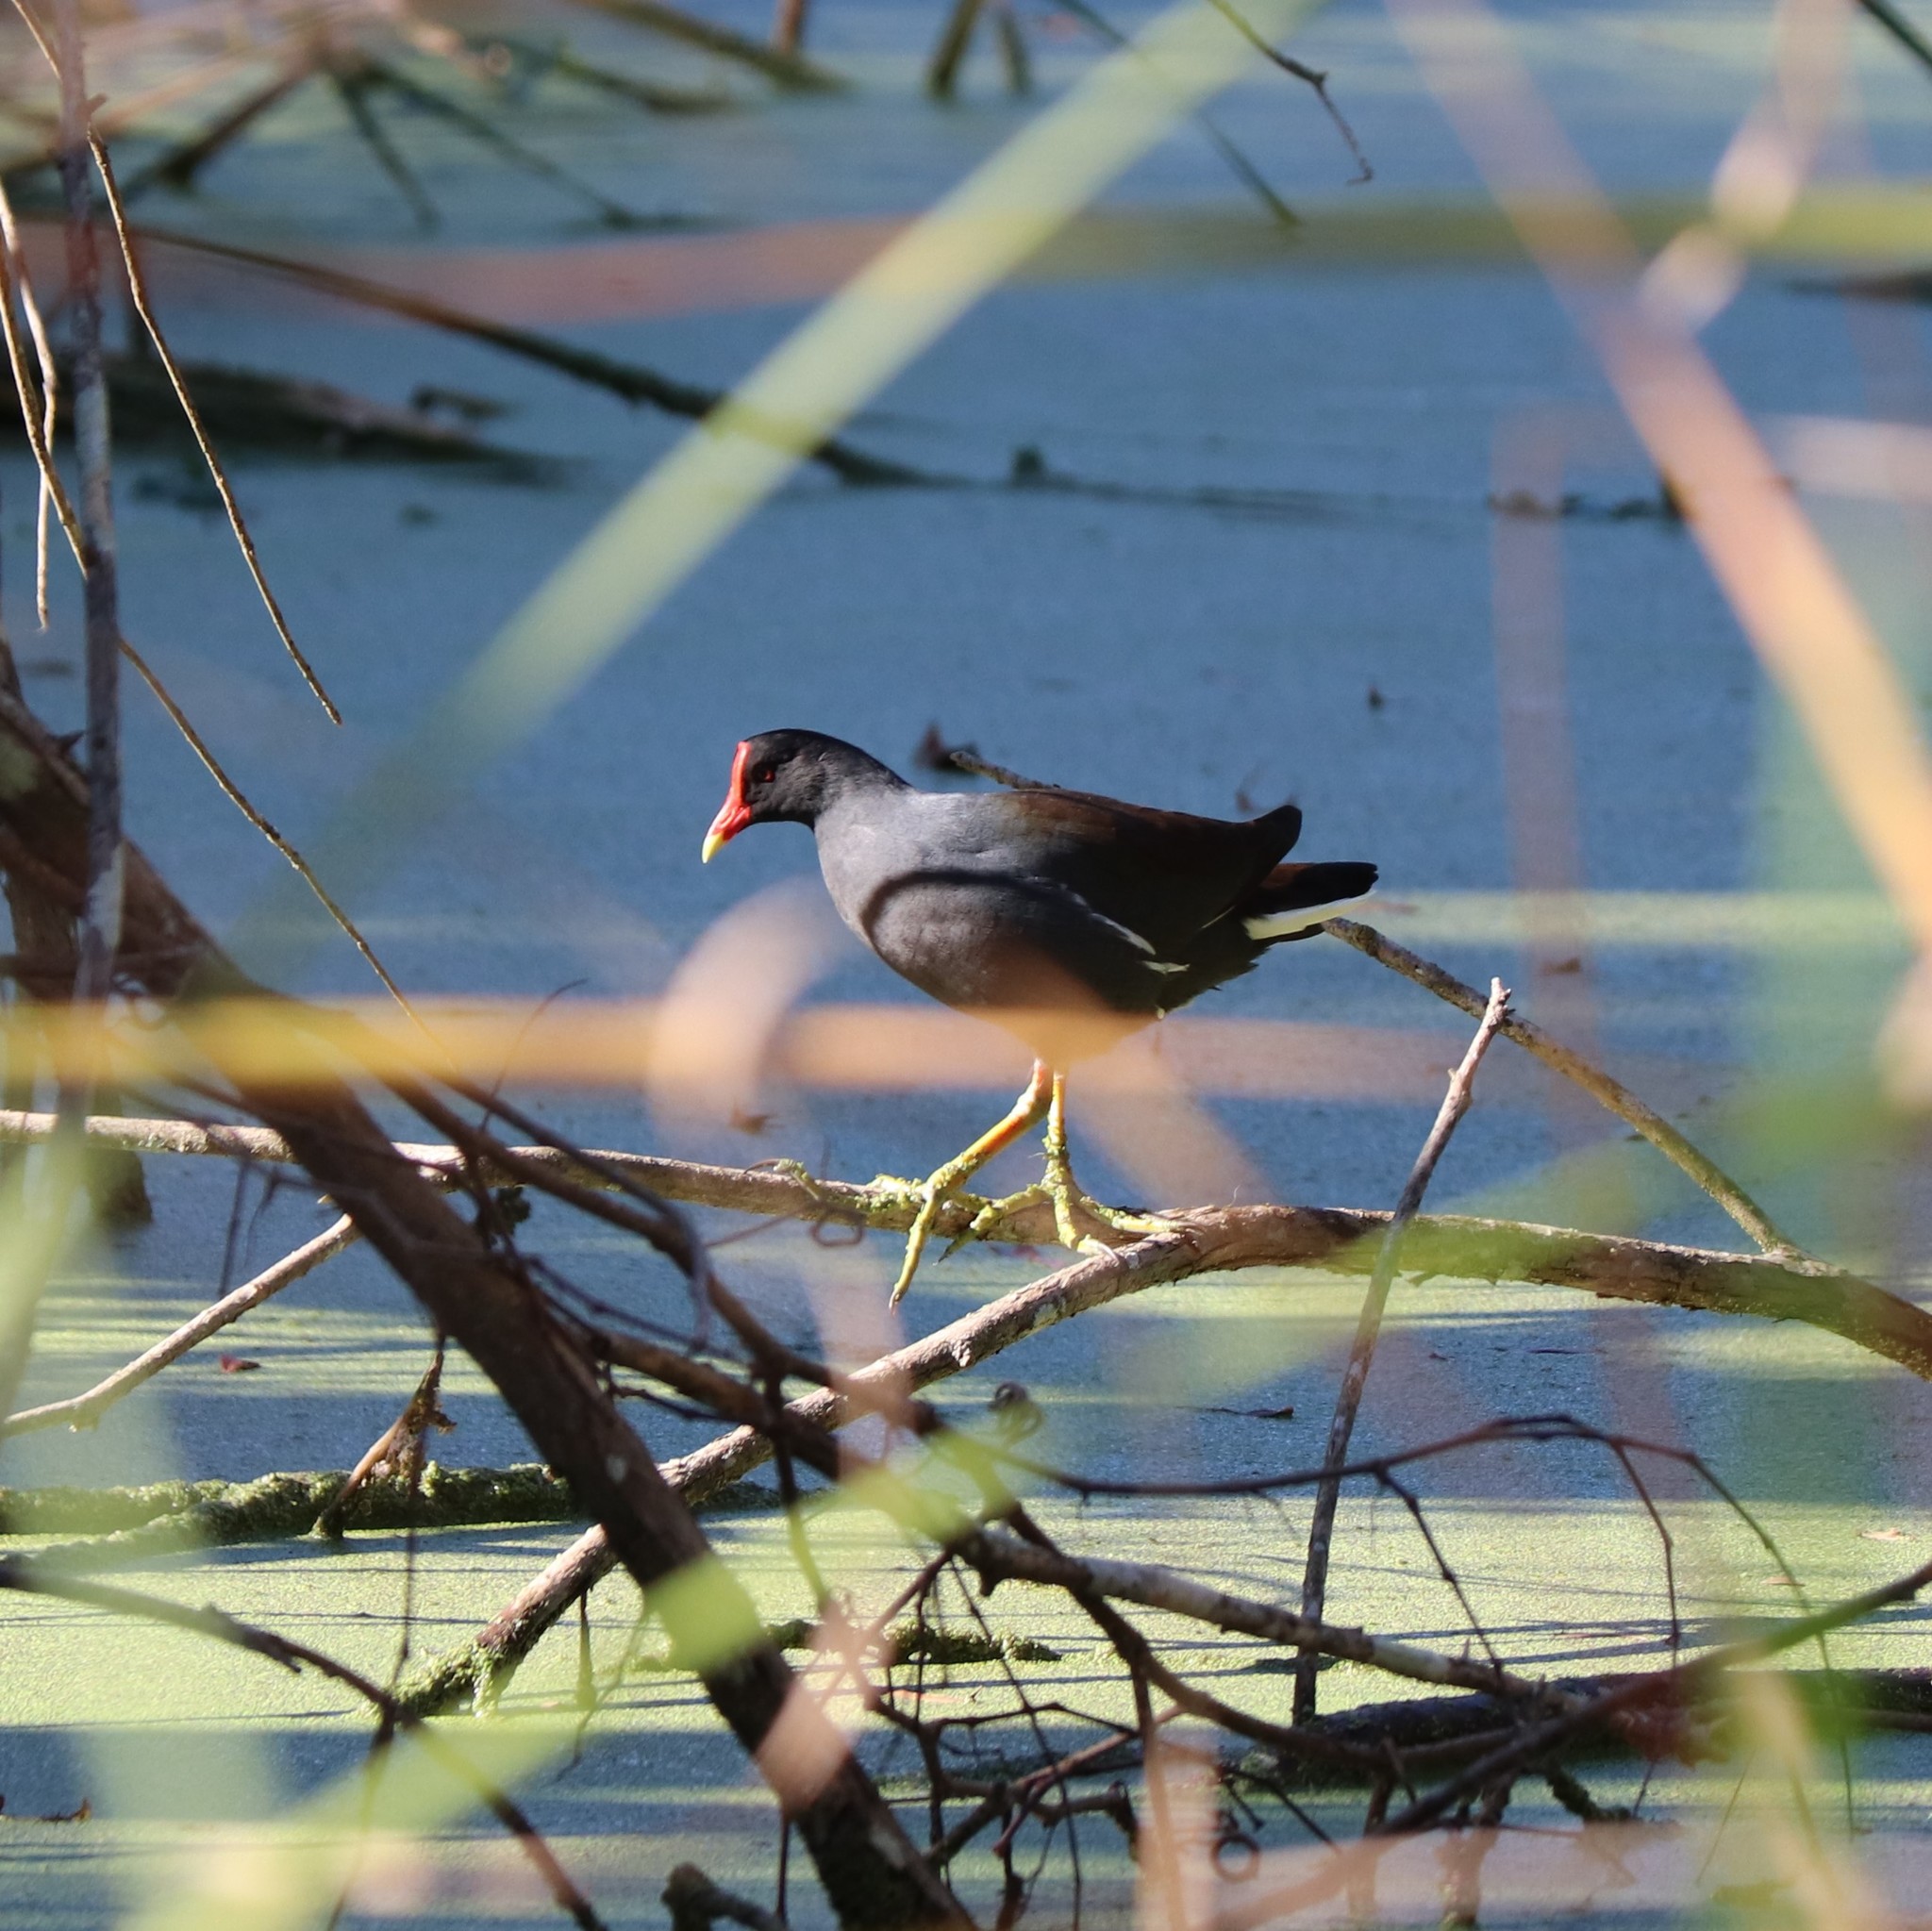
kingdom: Animalia
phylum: Chordata
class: Aves
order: Gruiformes
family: Rallidae
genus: Gallinula
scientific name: Gallinula chloropus
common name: Common moorhen
